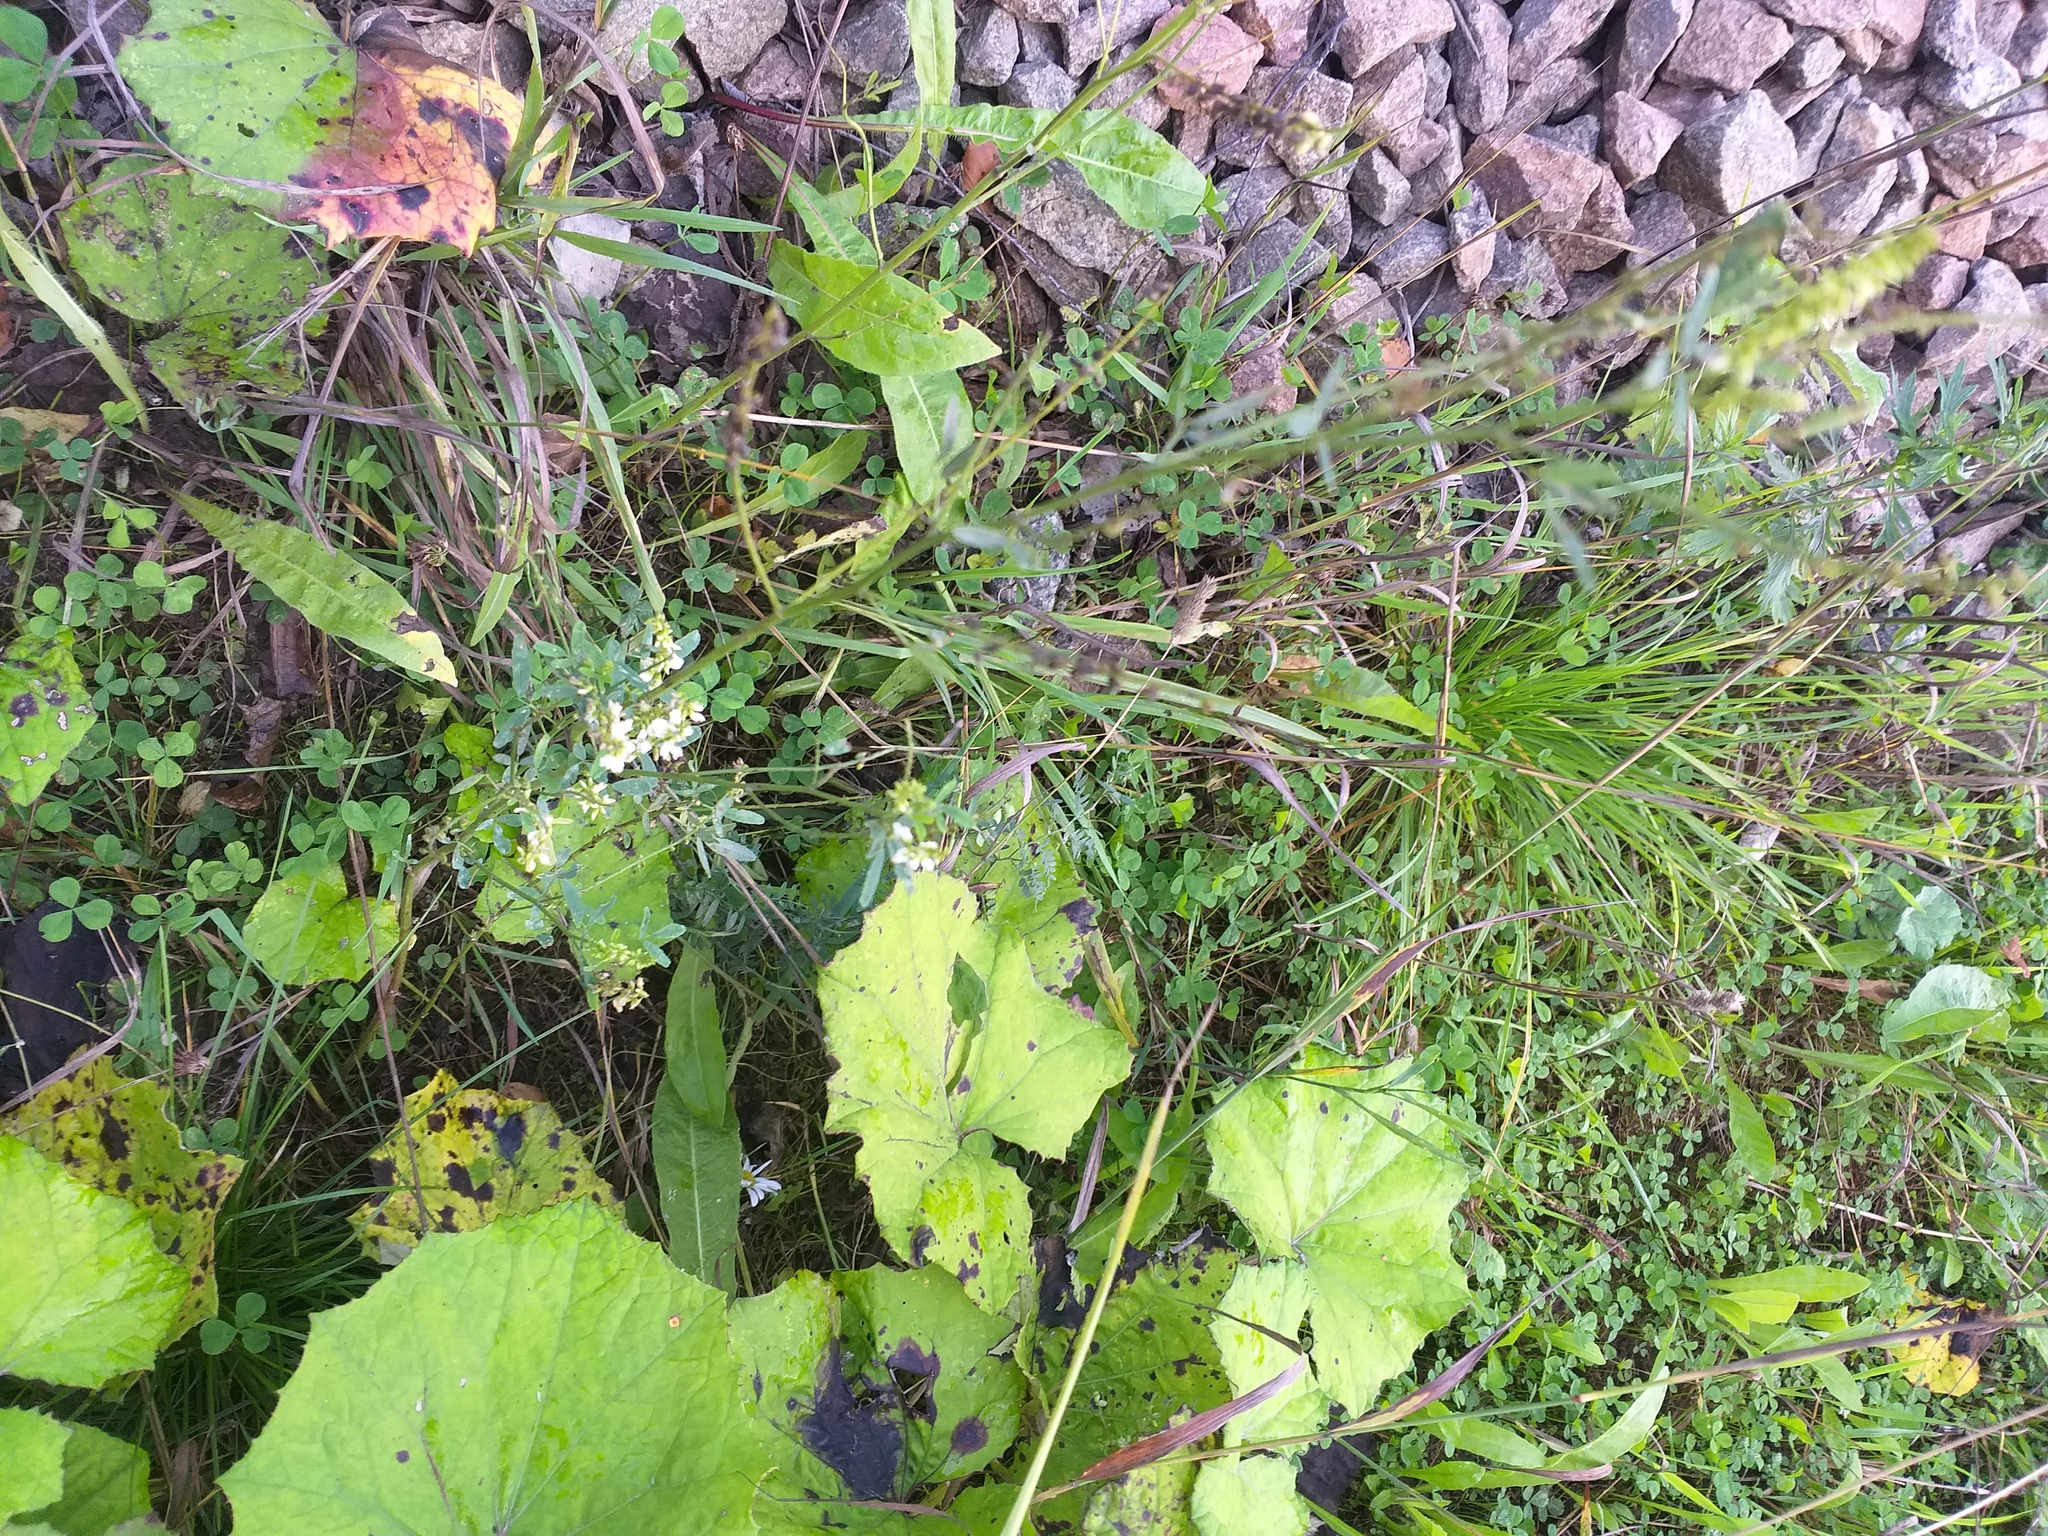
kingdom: Plantae
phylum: Tracheophyta
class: Magnoliopsida
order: Fabales
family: Fabaceae
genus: Melilotus
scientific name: Melilotus albus
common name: White melilot
